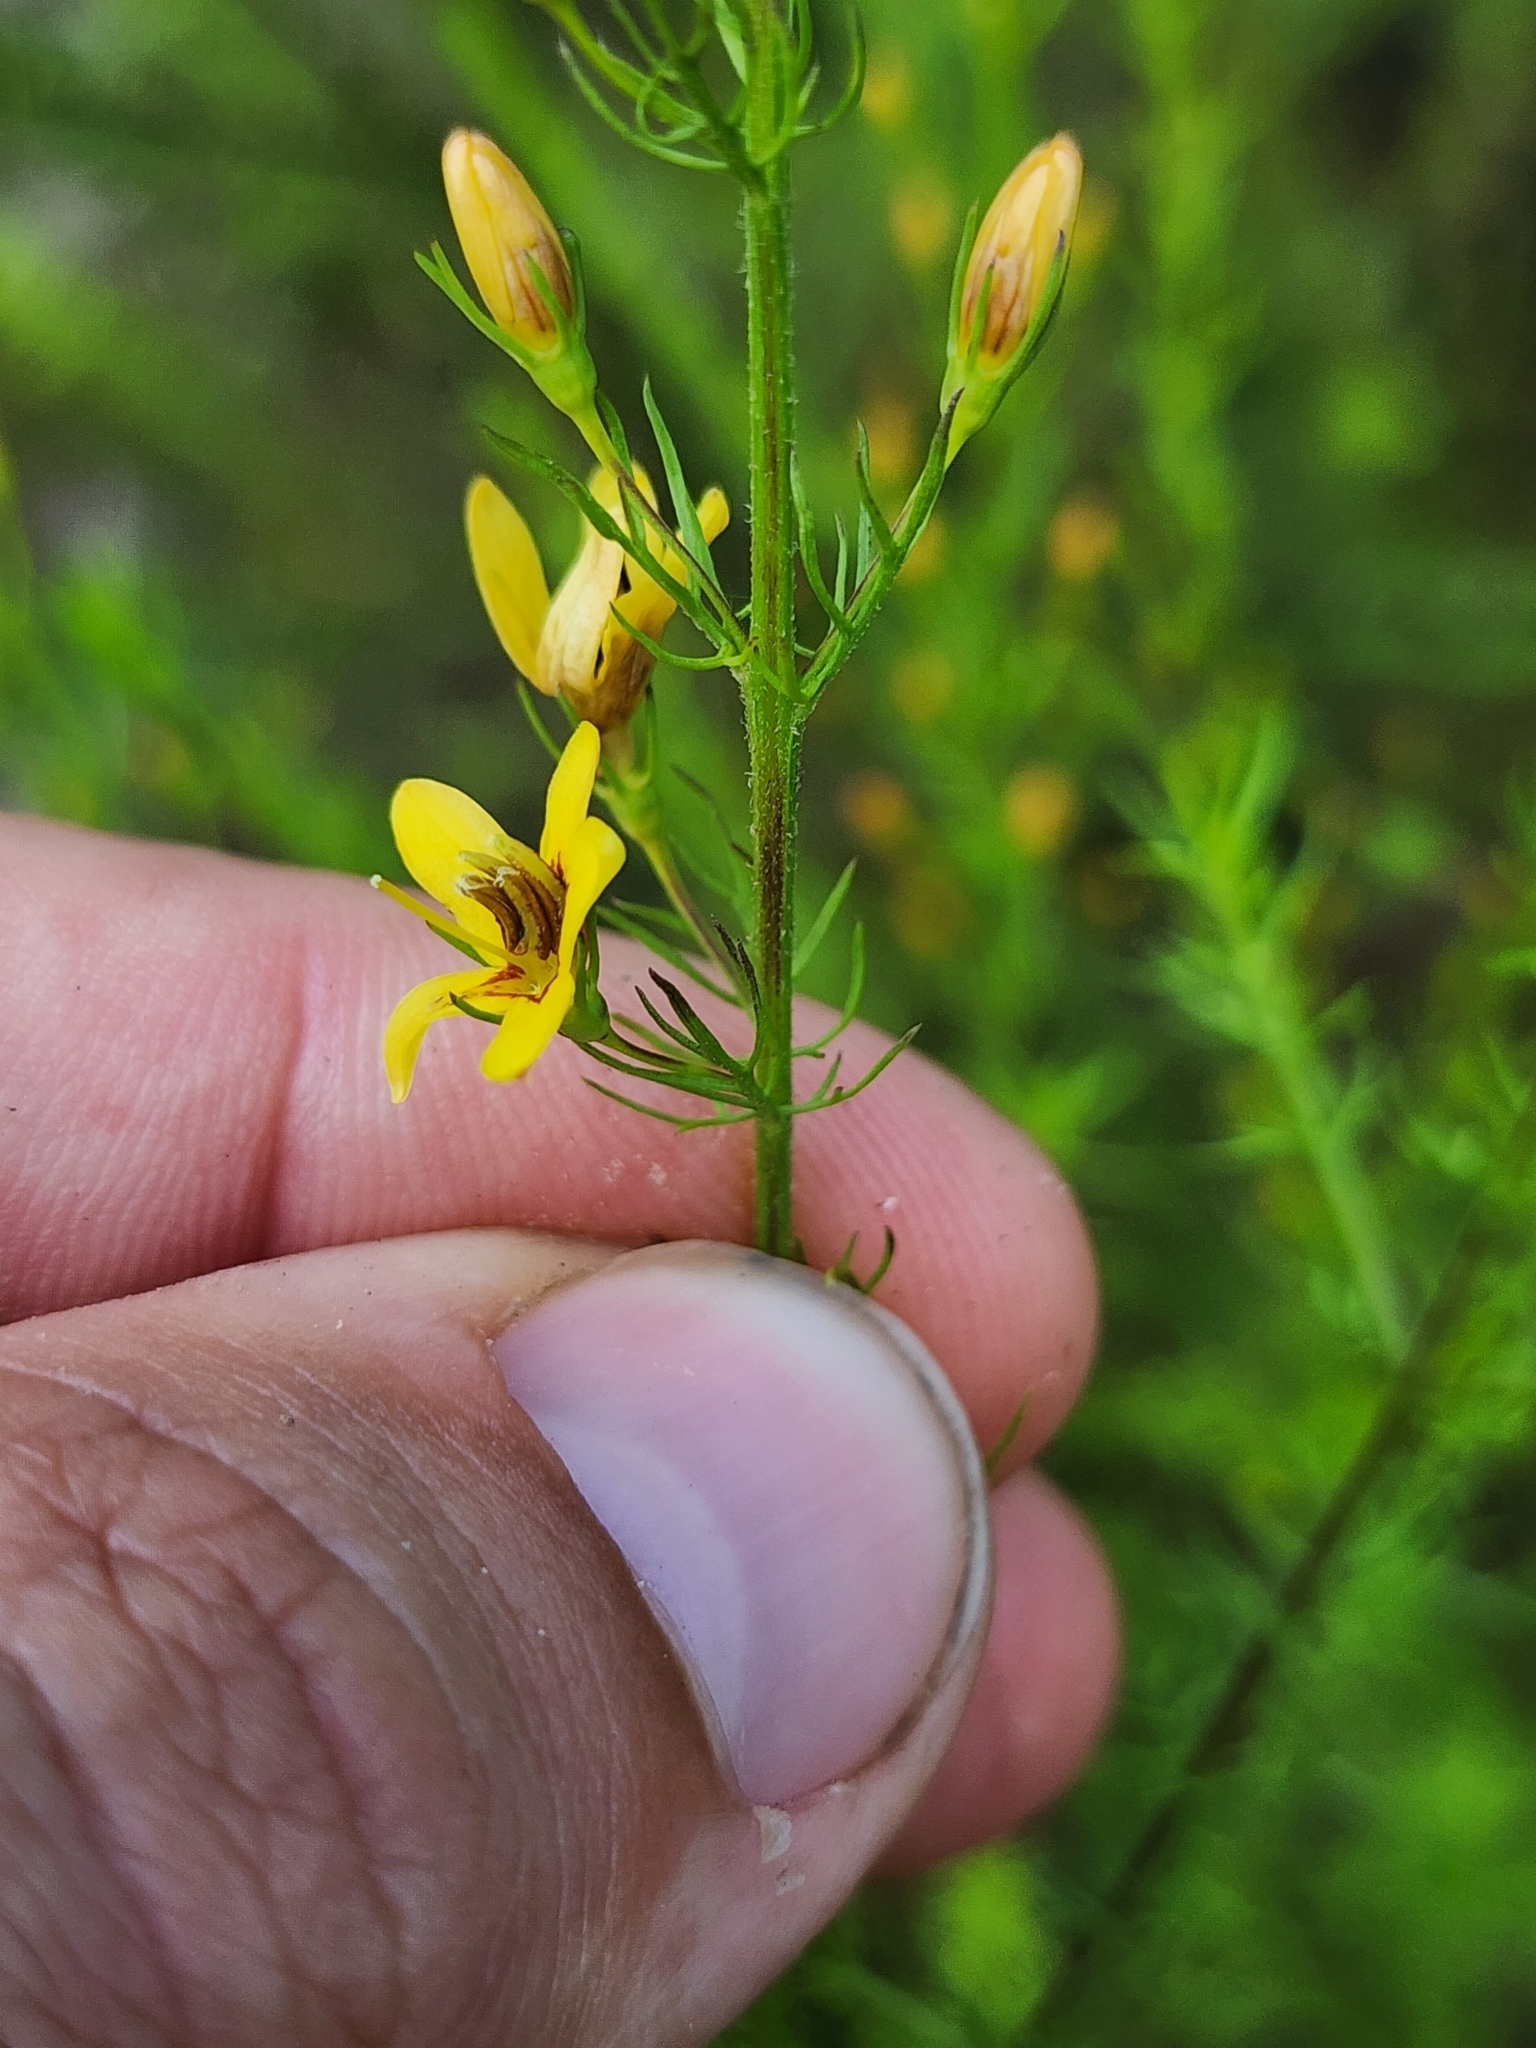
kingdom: Animalia
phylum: Arthropoda
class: Insecta
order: Lepidoptera
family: Nymphalidae
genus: Junonia
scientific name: Junonia coenia
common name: Common buckeye
